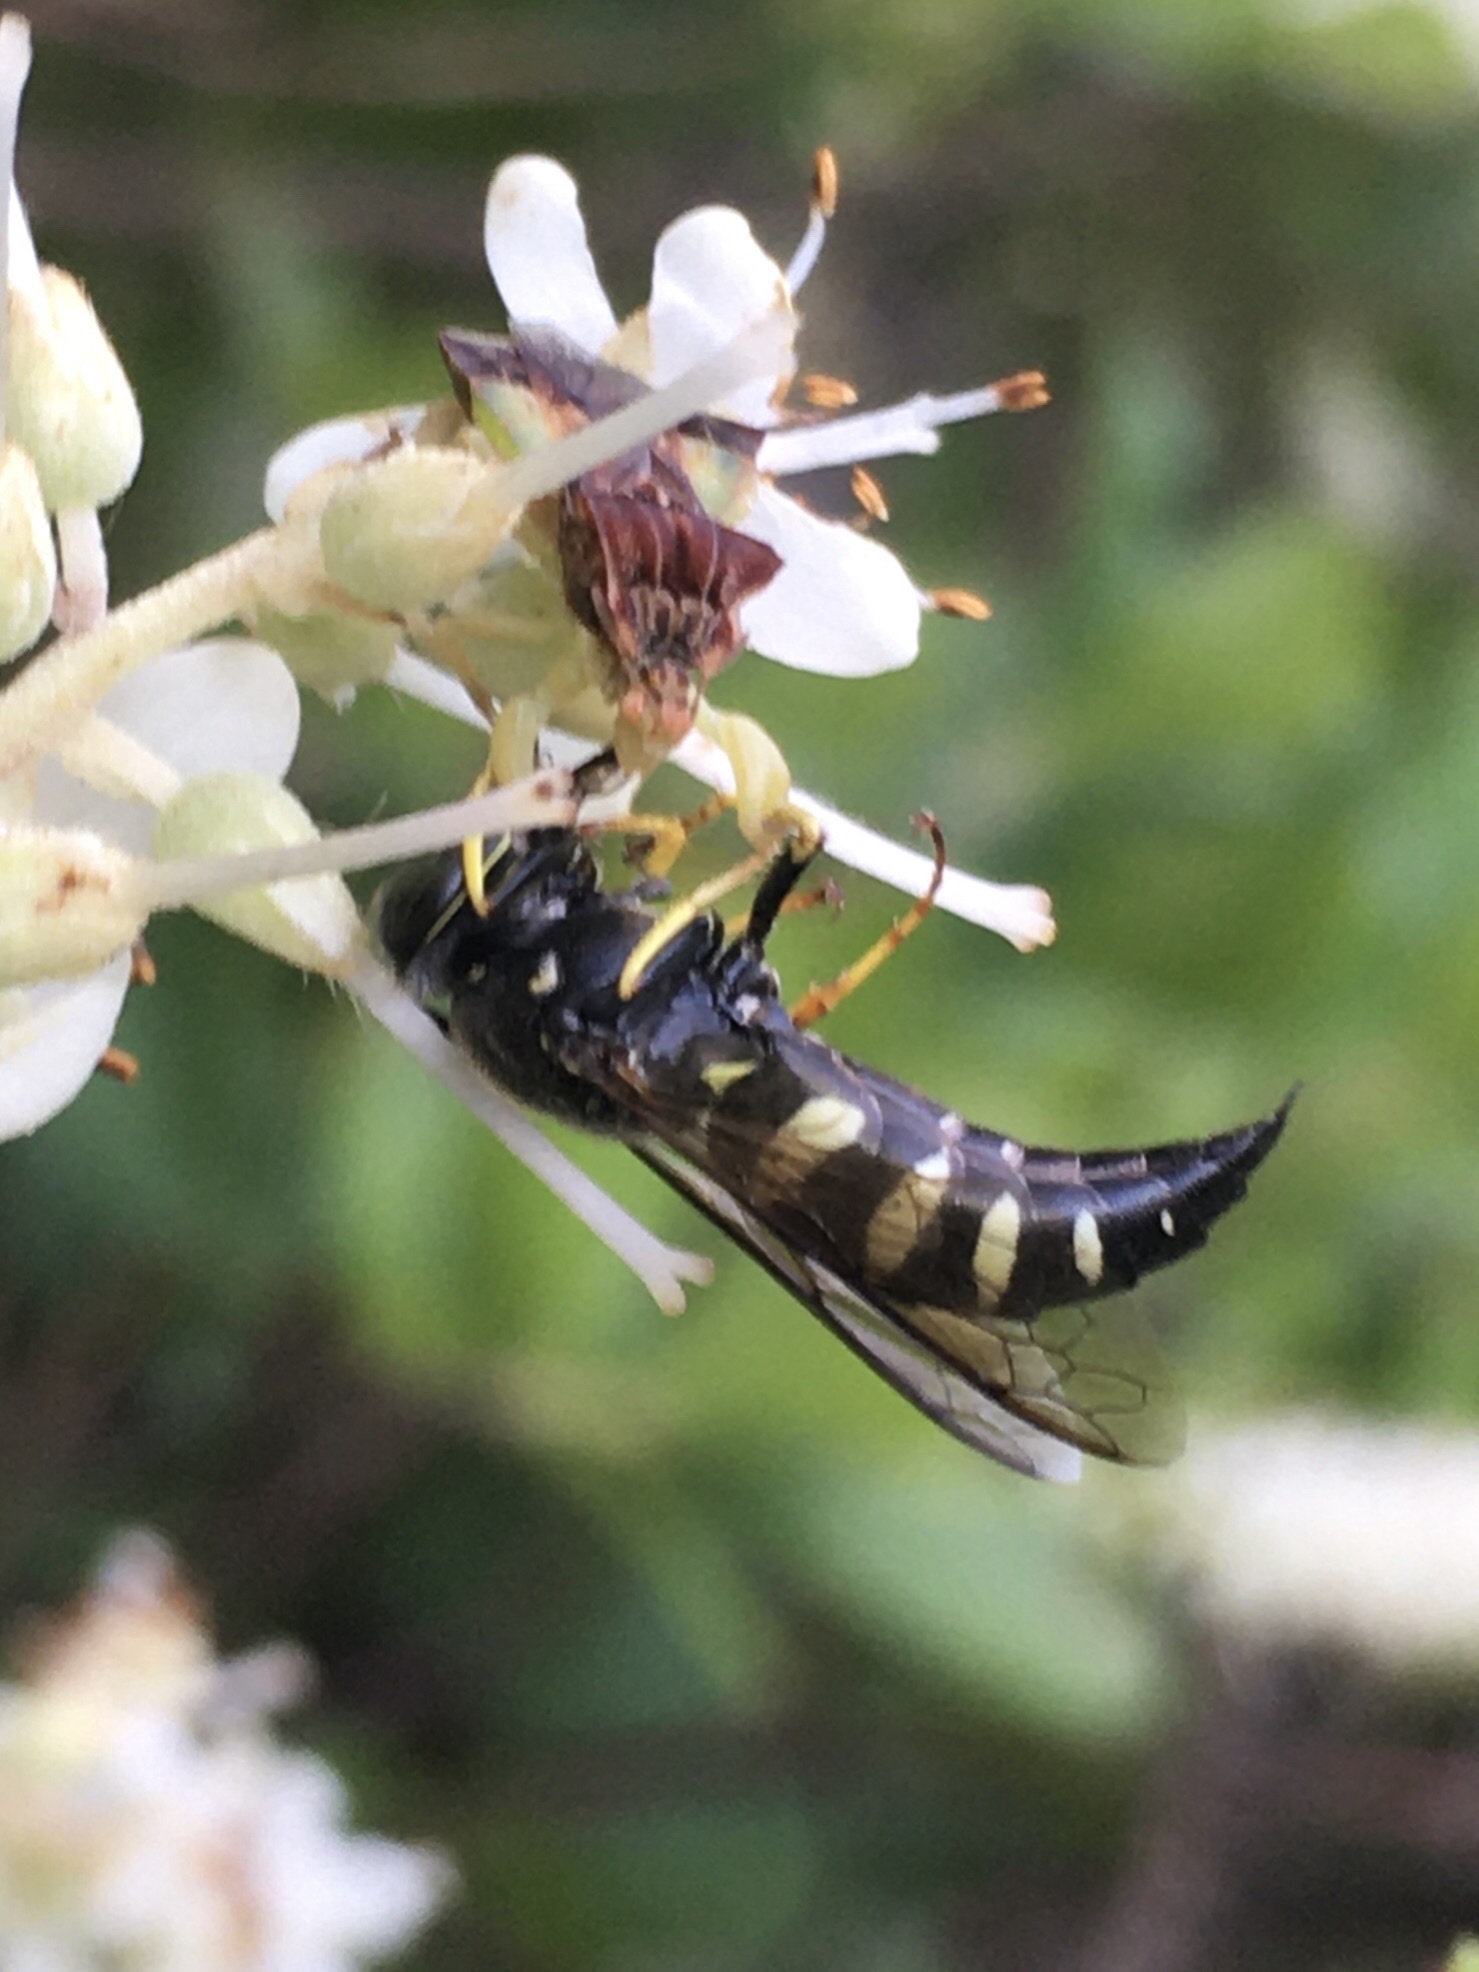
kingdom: Animalia
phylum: Arthropoda
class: Insecta
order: Hymenoptera
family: Crabronidae
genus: Bicyrtes
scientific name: Bicyrtes quadrifasciatus
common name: Four-banded stink bug hunter wasp
